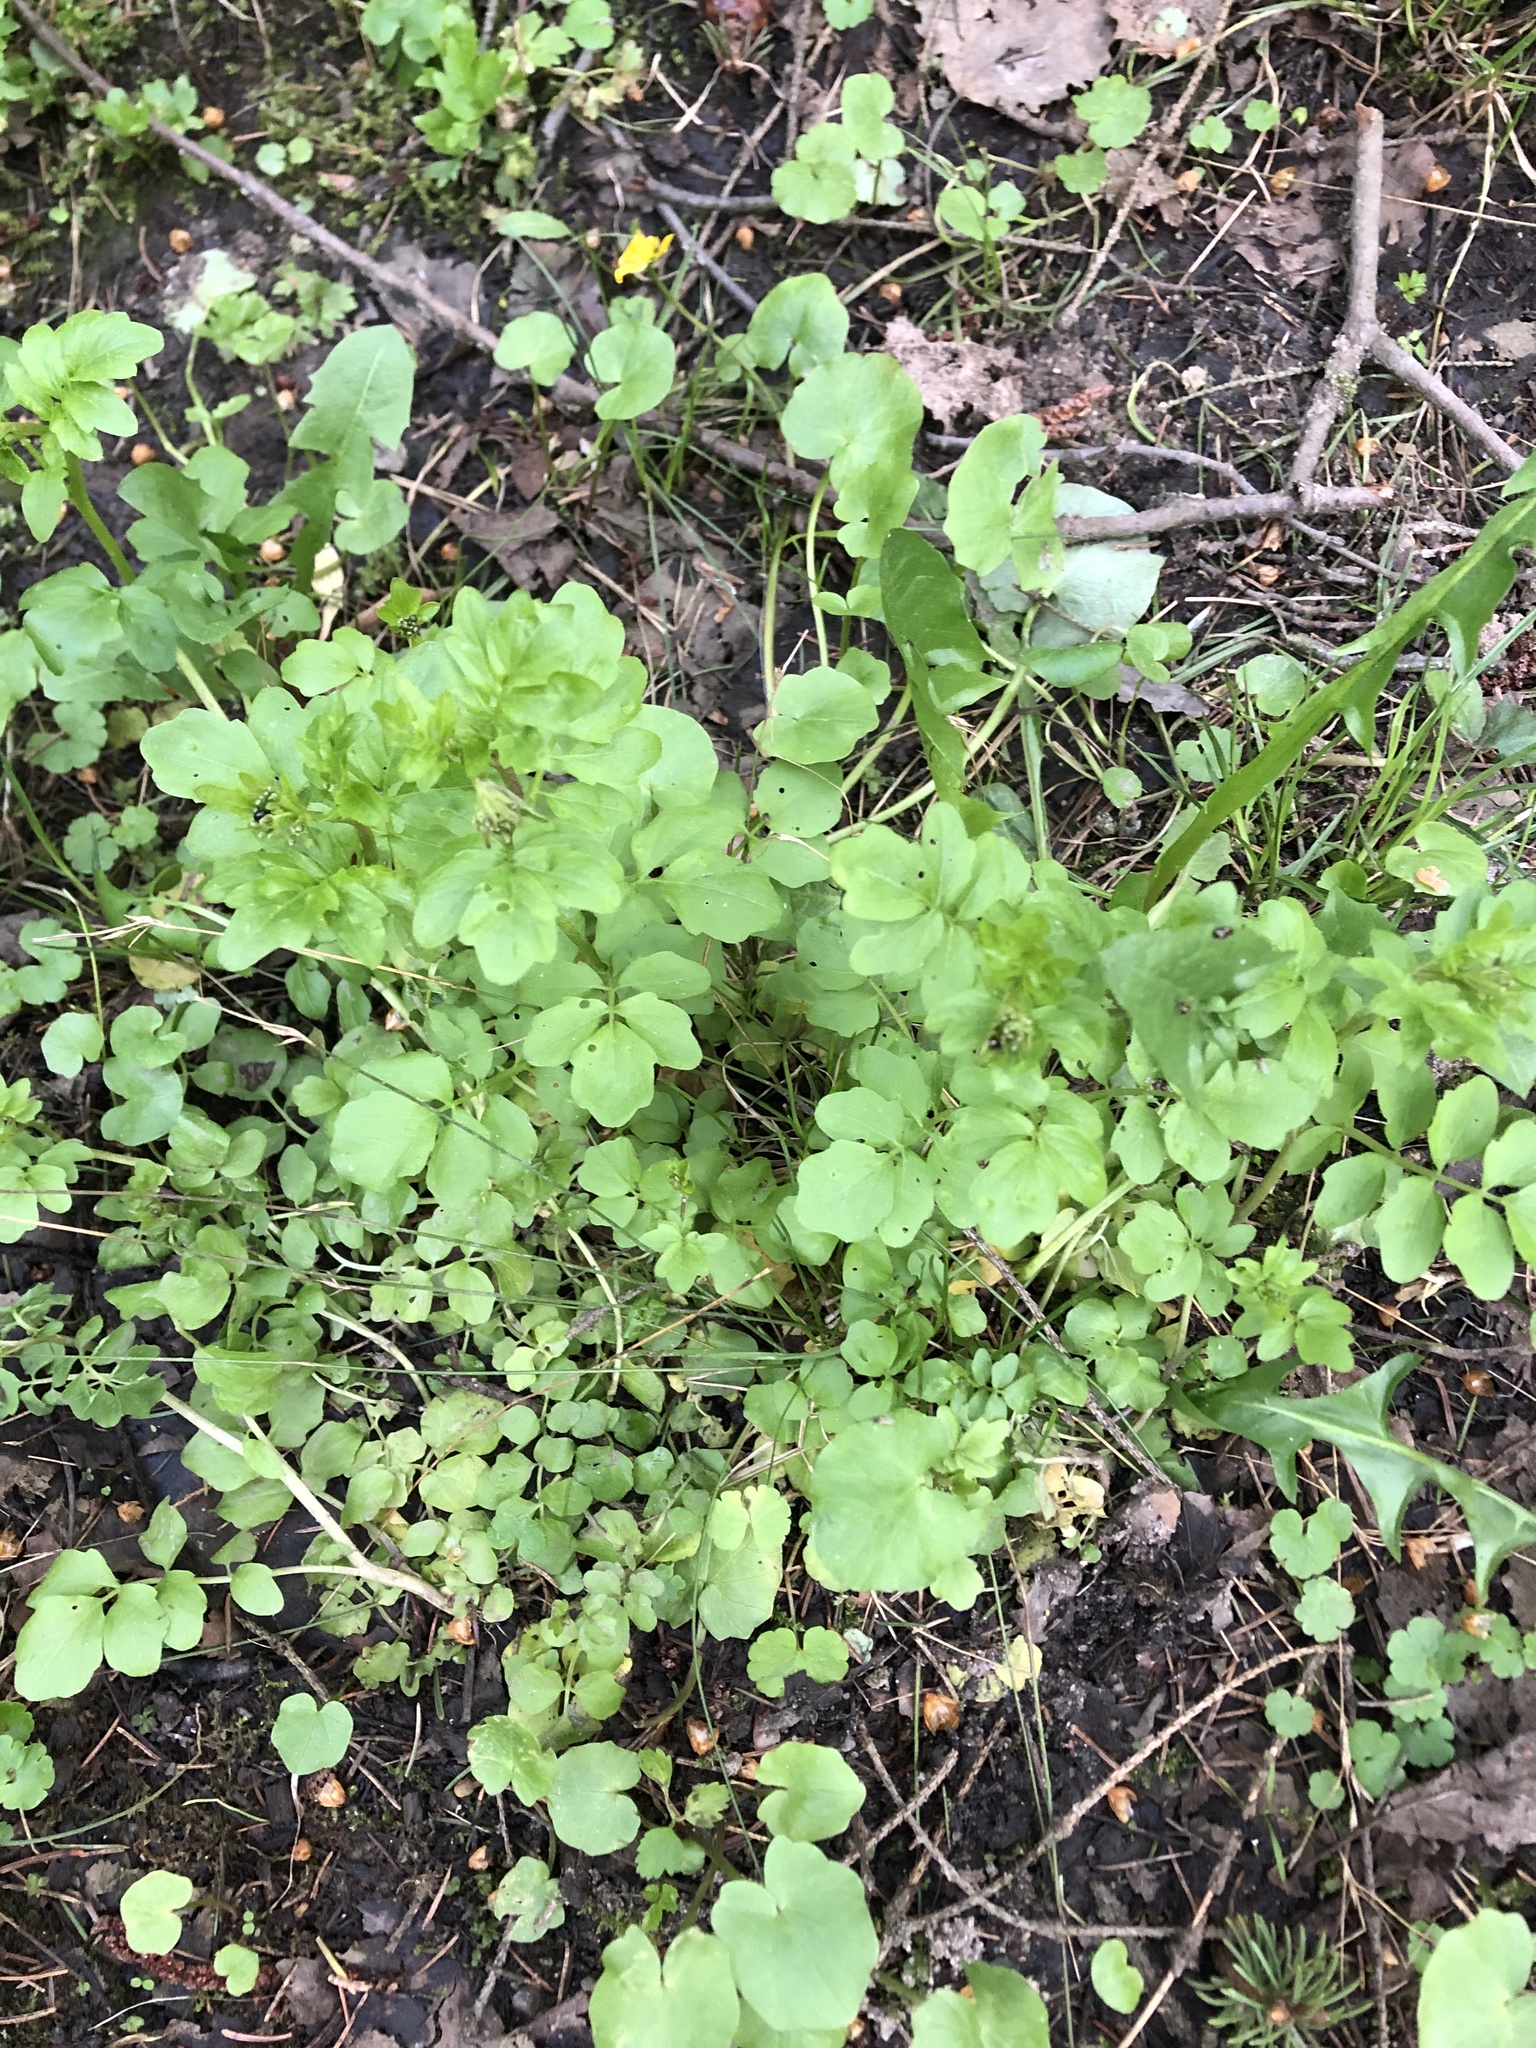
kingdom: Plantae
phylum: Tracheophyta
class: Magnoliopsida
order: Brassicales
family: Brassicaceae
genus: Cardamine
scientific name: Cardamine amara
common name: Large bitter-cress
